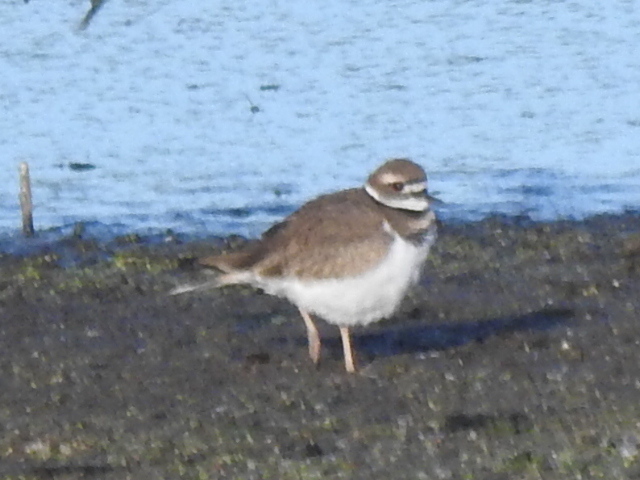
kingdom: Animalia
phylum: Chordata
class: Aves
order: Charadriiformes
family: Charadriidae
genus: Charadrius
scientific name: Charadrius vociferus
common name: Killdeer
